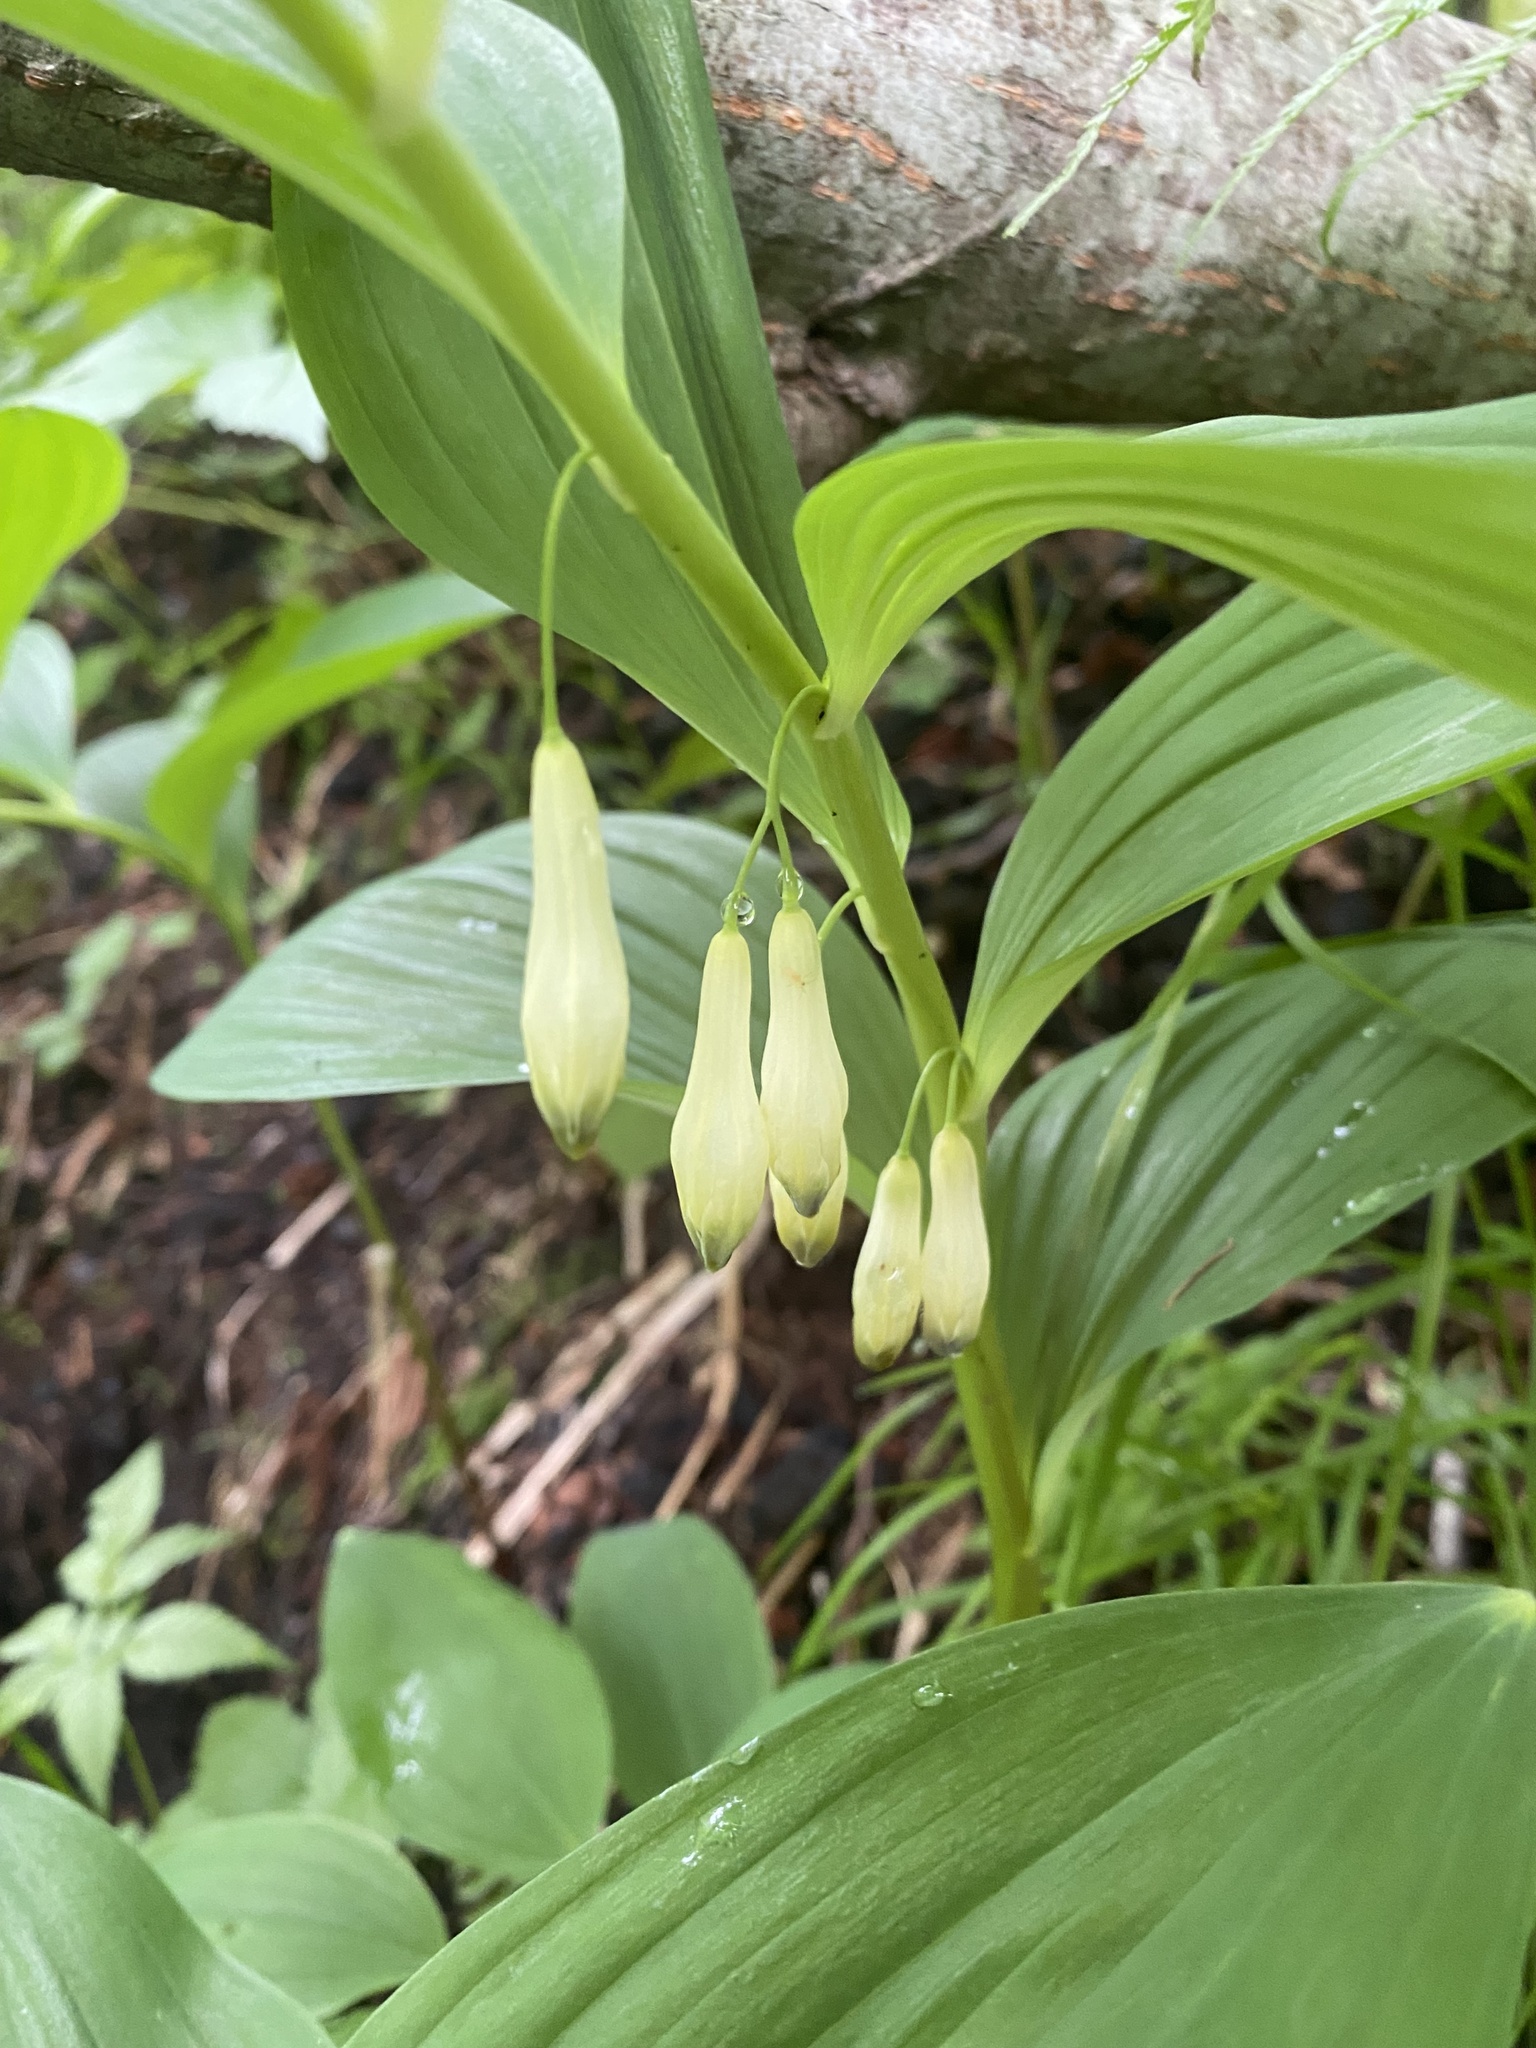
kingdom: Plantae
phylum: Tracheophyta
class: Liliopsida
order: Asparagales
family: Asparagaceae
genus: Polygonatum
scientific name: Polygonatum odoratum
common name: Angular solomon's-seal
